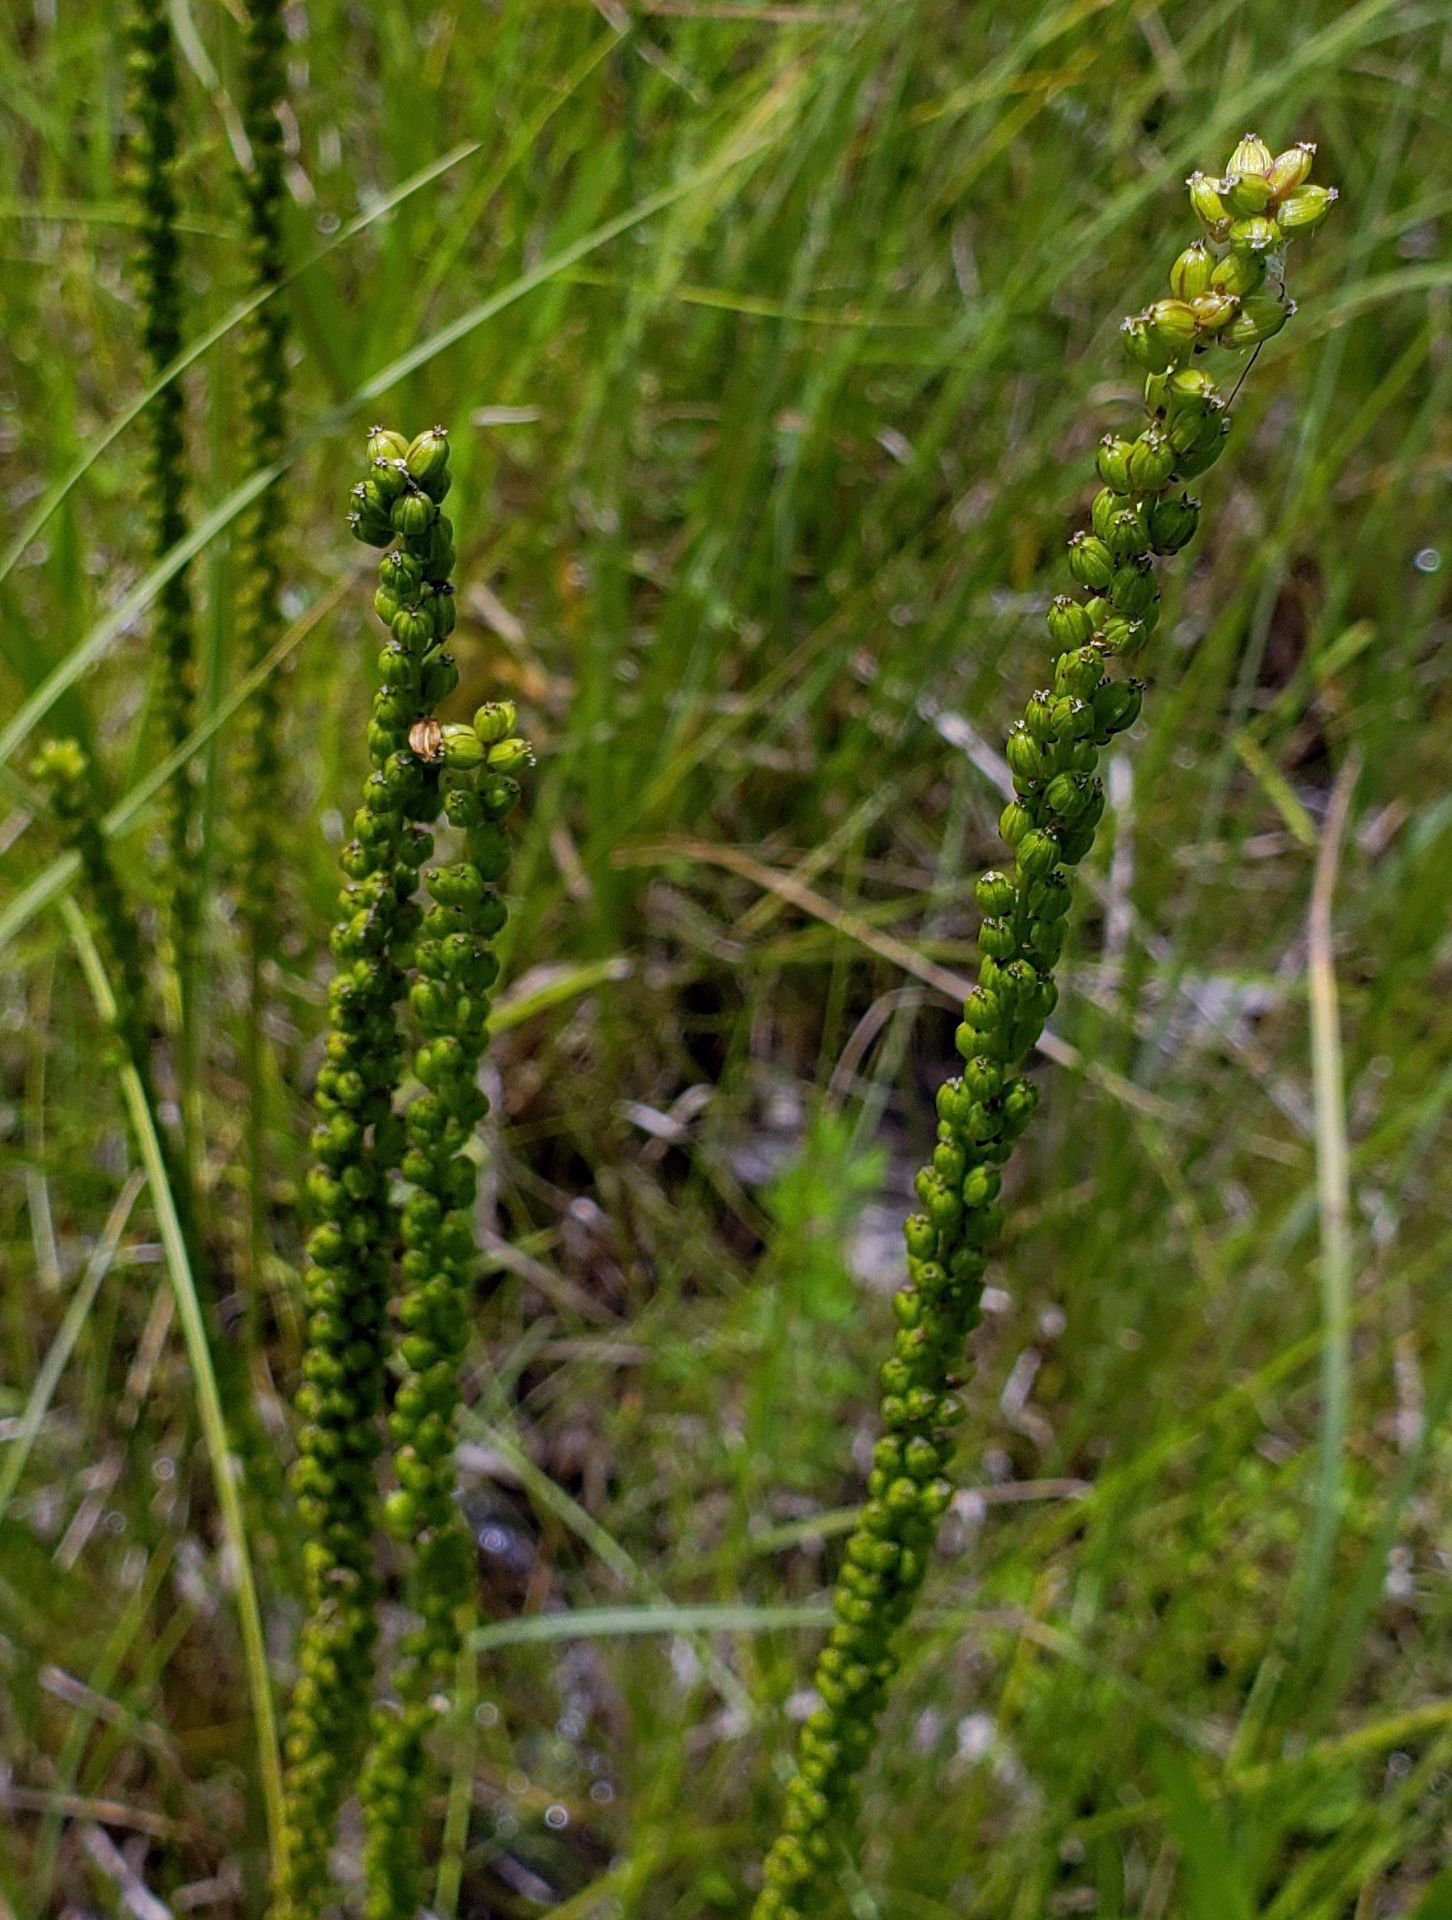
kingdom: Plantae
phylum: Tracheophyta
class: Liliopsida
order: Alismatales
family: Juncaginaceae
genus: Triglochin
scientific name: Triglochin maritima
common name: Sea arrowgrass
